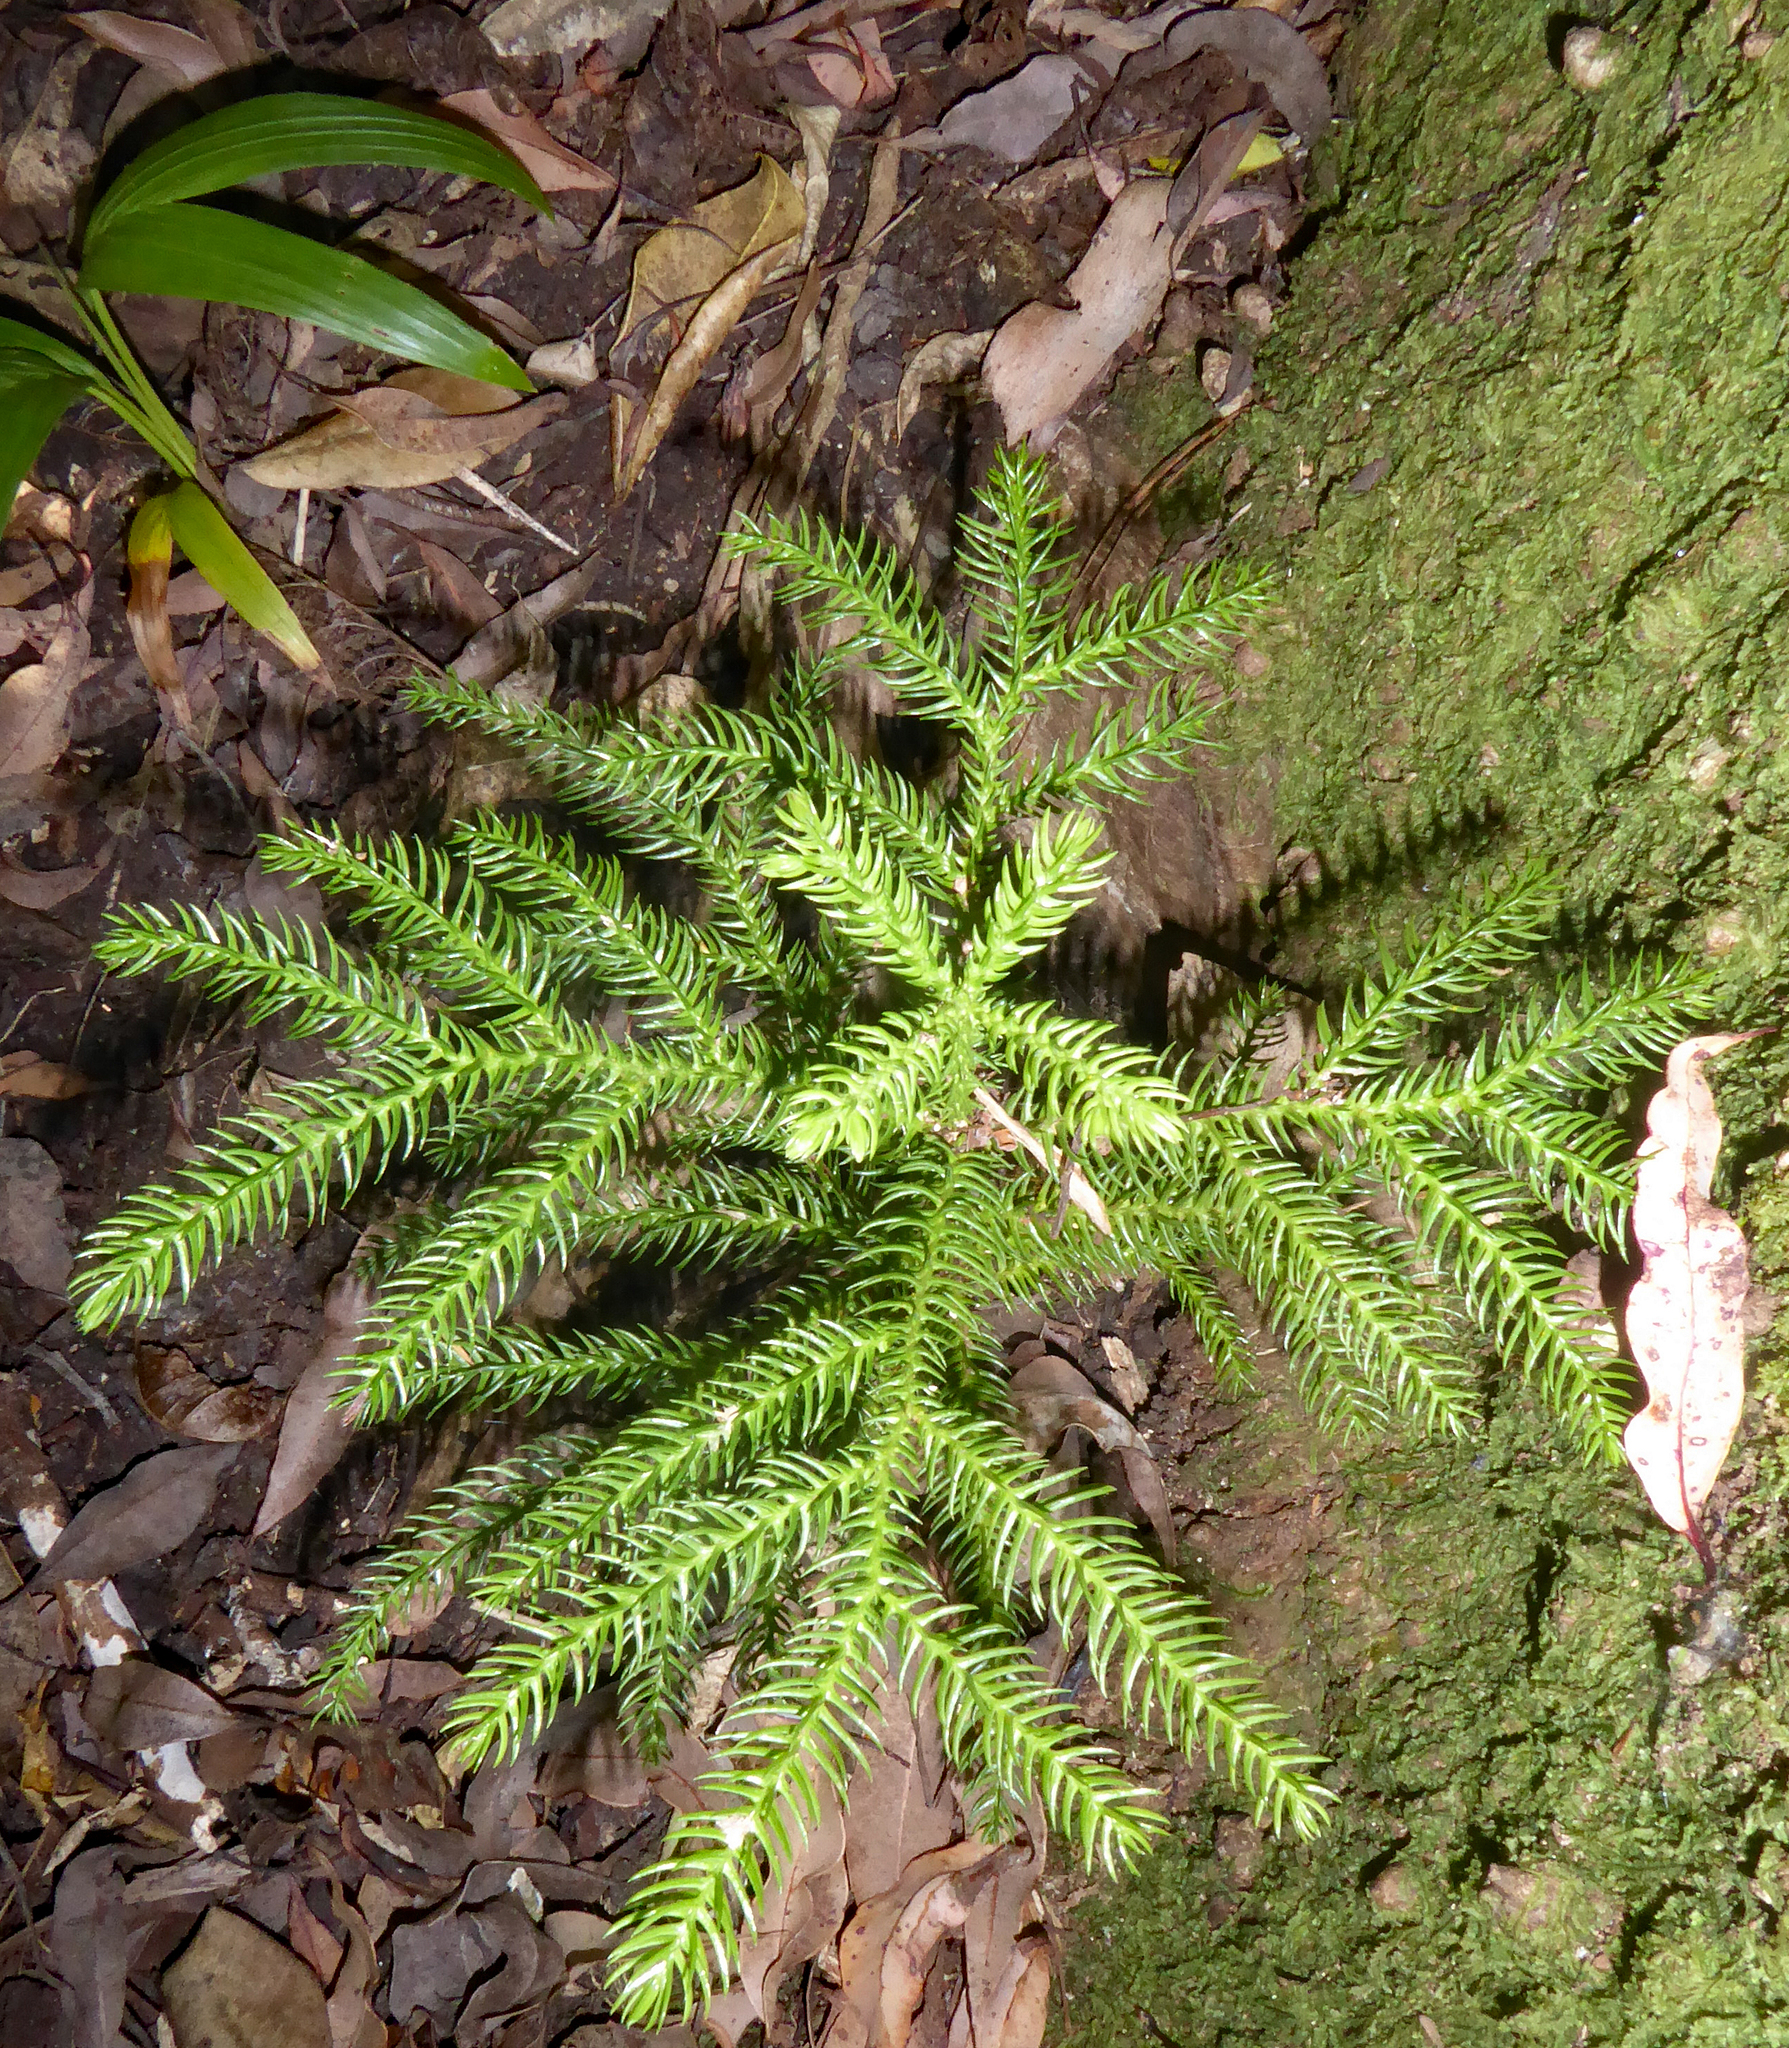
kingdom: Plantae
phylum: Tracheophyta
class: Pinopsida
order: Pinales
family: Araucariaceae
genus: Araucaria
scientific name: Araucaria heterophylla
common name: Norfolk island pine
